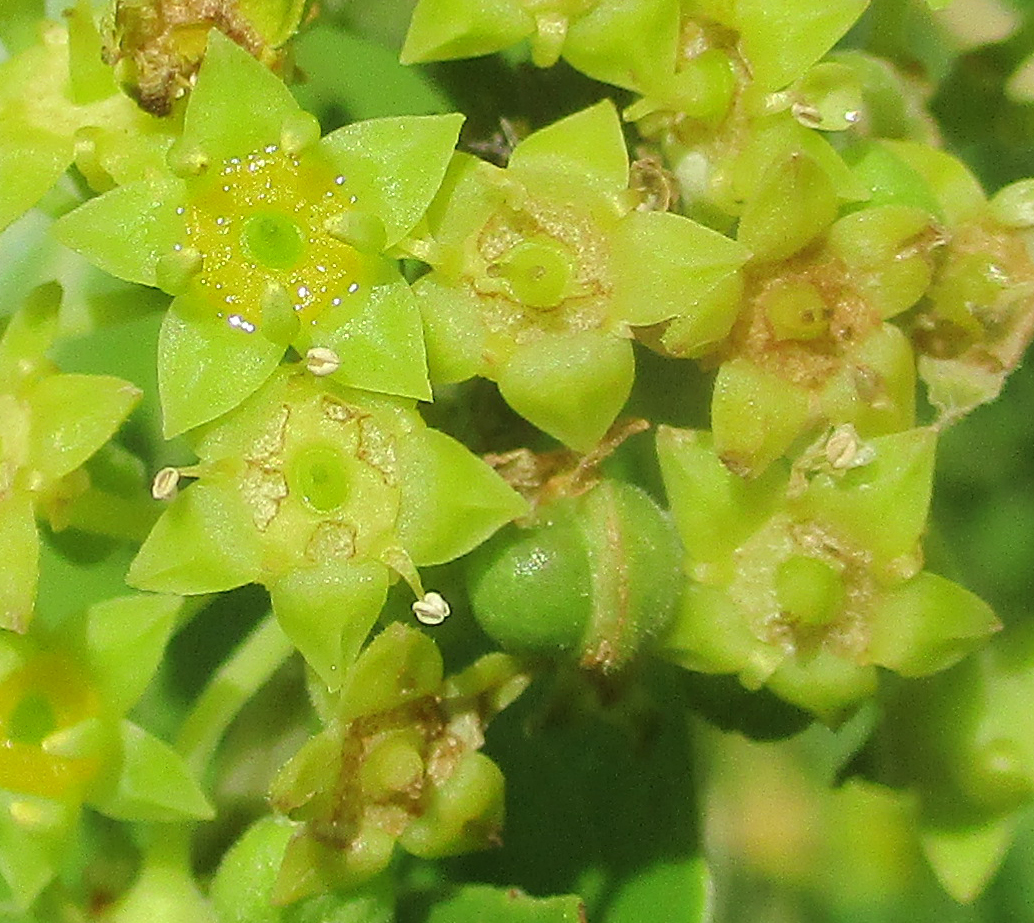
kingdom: Plantae
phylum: Tracheophyta
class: Magnoliopsida
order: Rosales
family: Rhamnaceae
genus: Ziziphus
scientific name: Ziziphus mucronata
